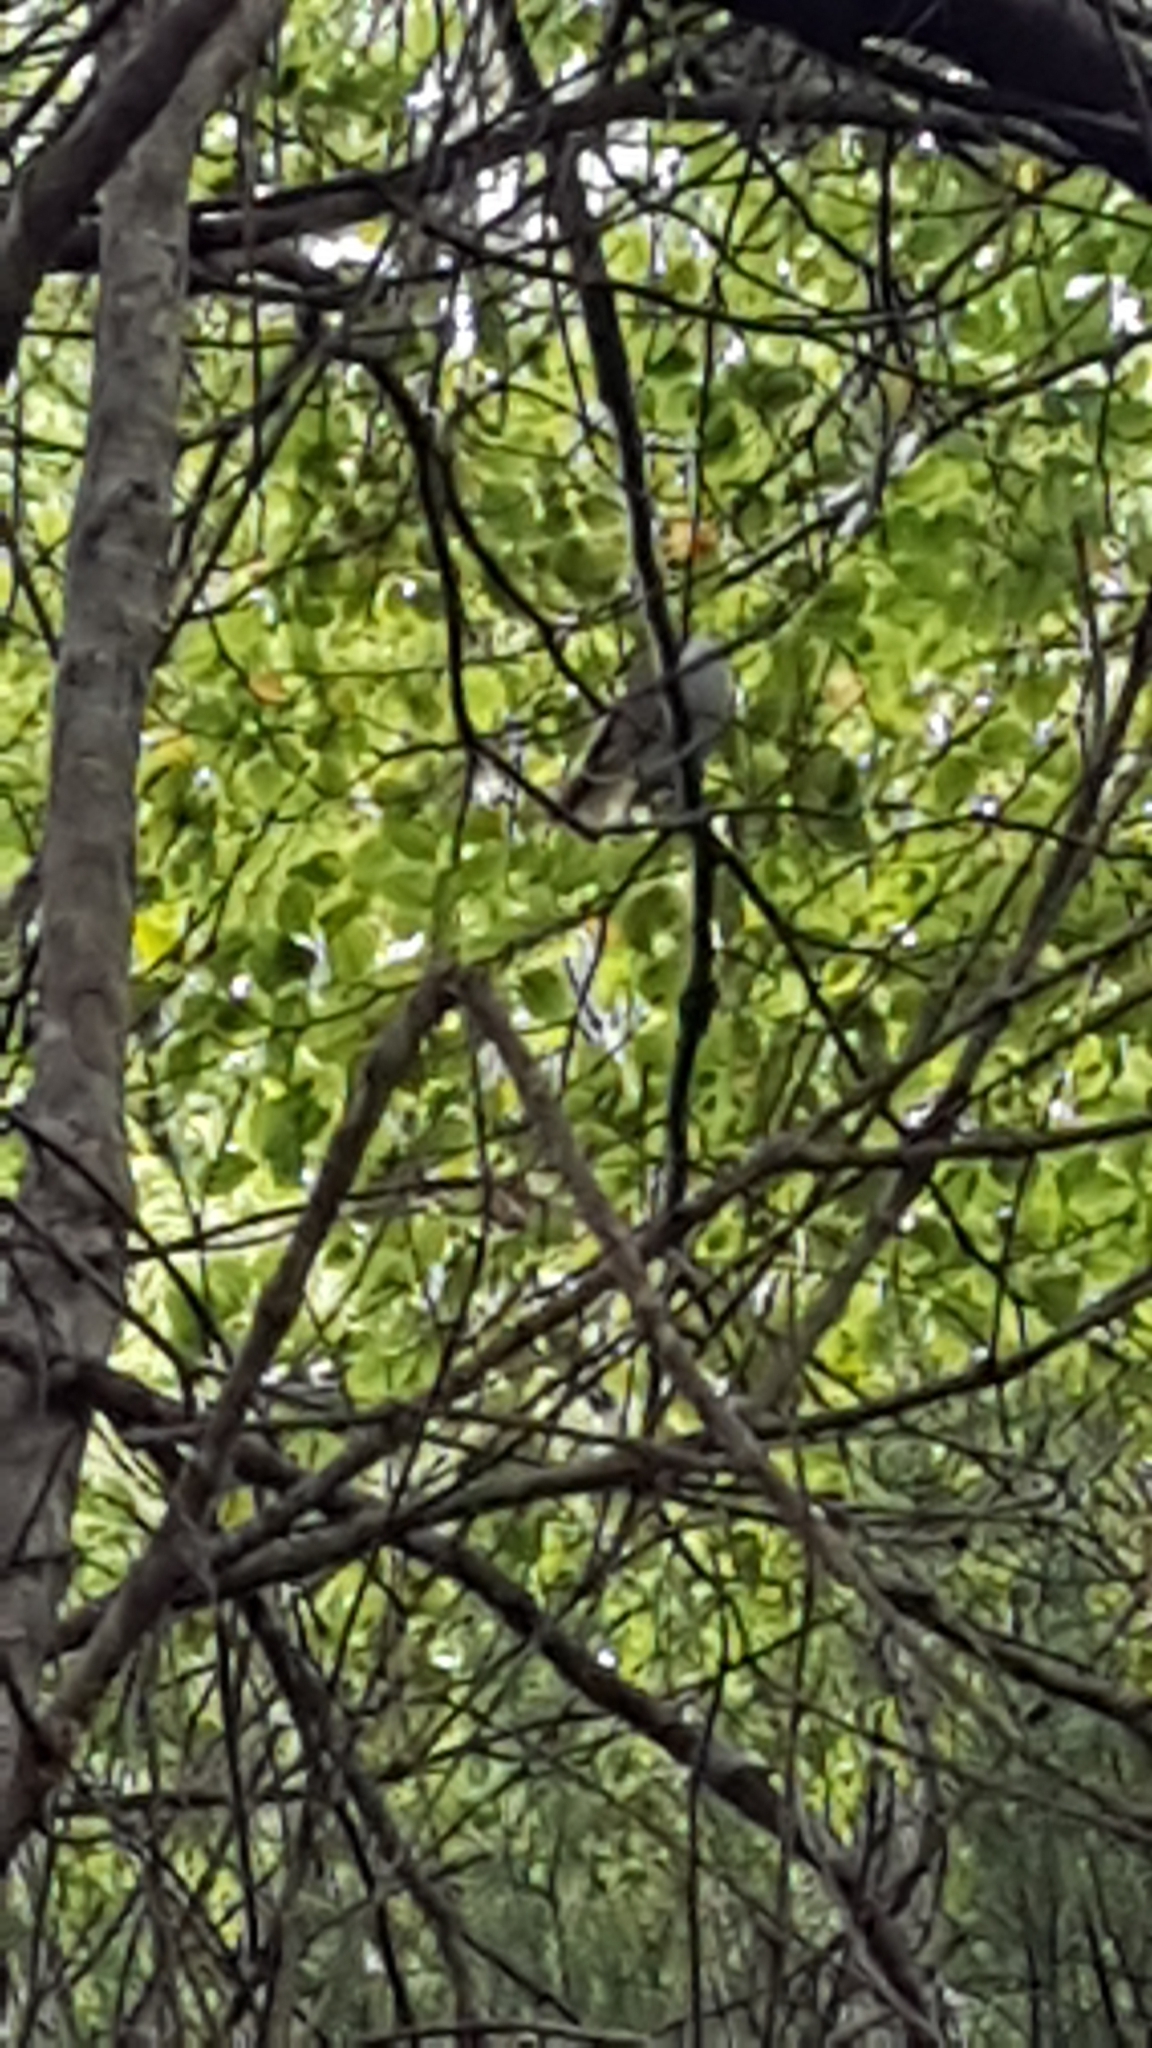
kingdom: Animalia
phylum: Chordata
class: Aves
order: Passeriformes
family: Acanthizidae
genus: Mohoua
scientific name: Mohoua albicilla
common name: Whitehead
